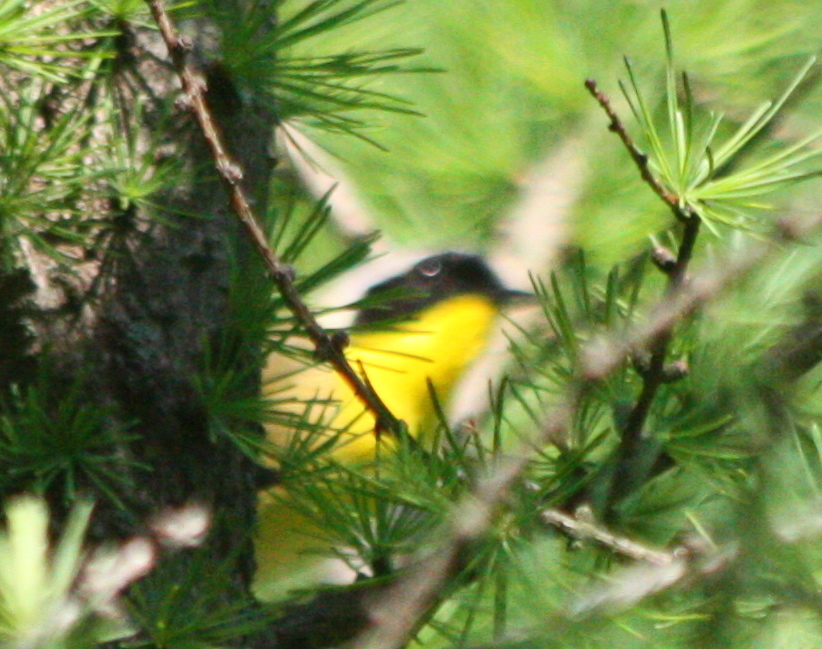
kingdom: Animalia
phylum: Chordata
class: Aves
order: Passeriformes
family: Parulidae
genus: Geothlypis
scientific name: Geothlypis trichas
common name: Common yellowthroat
